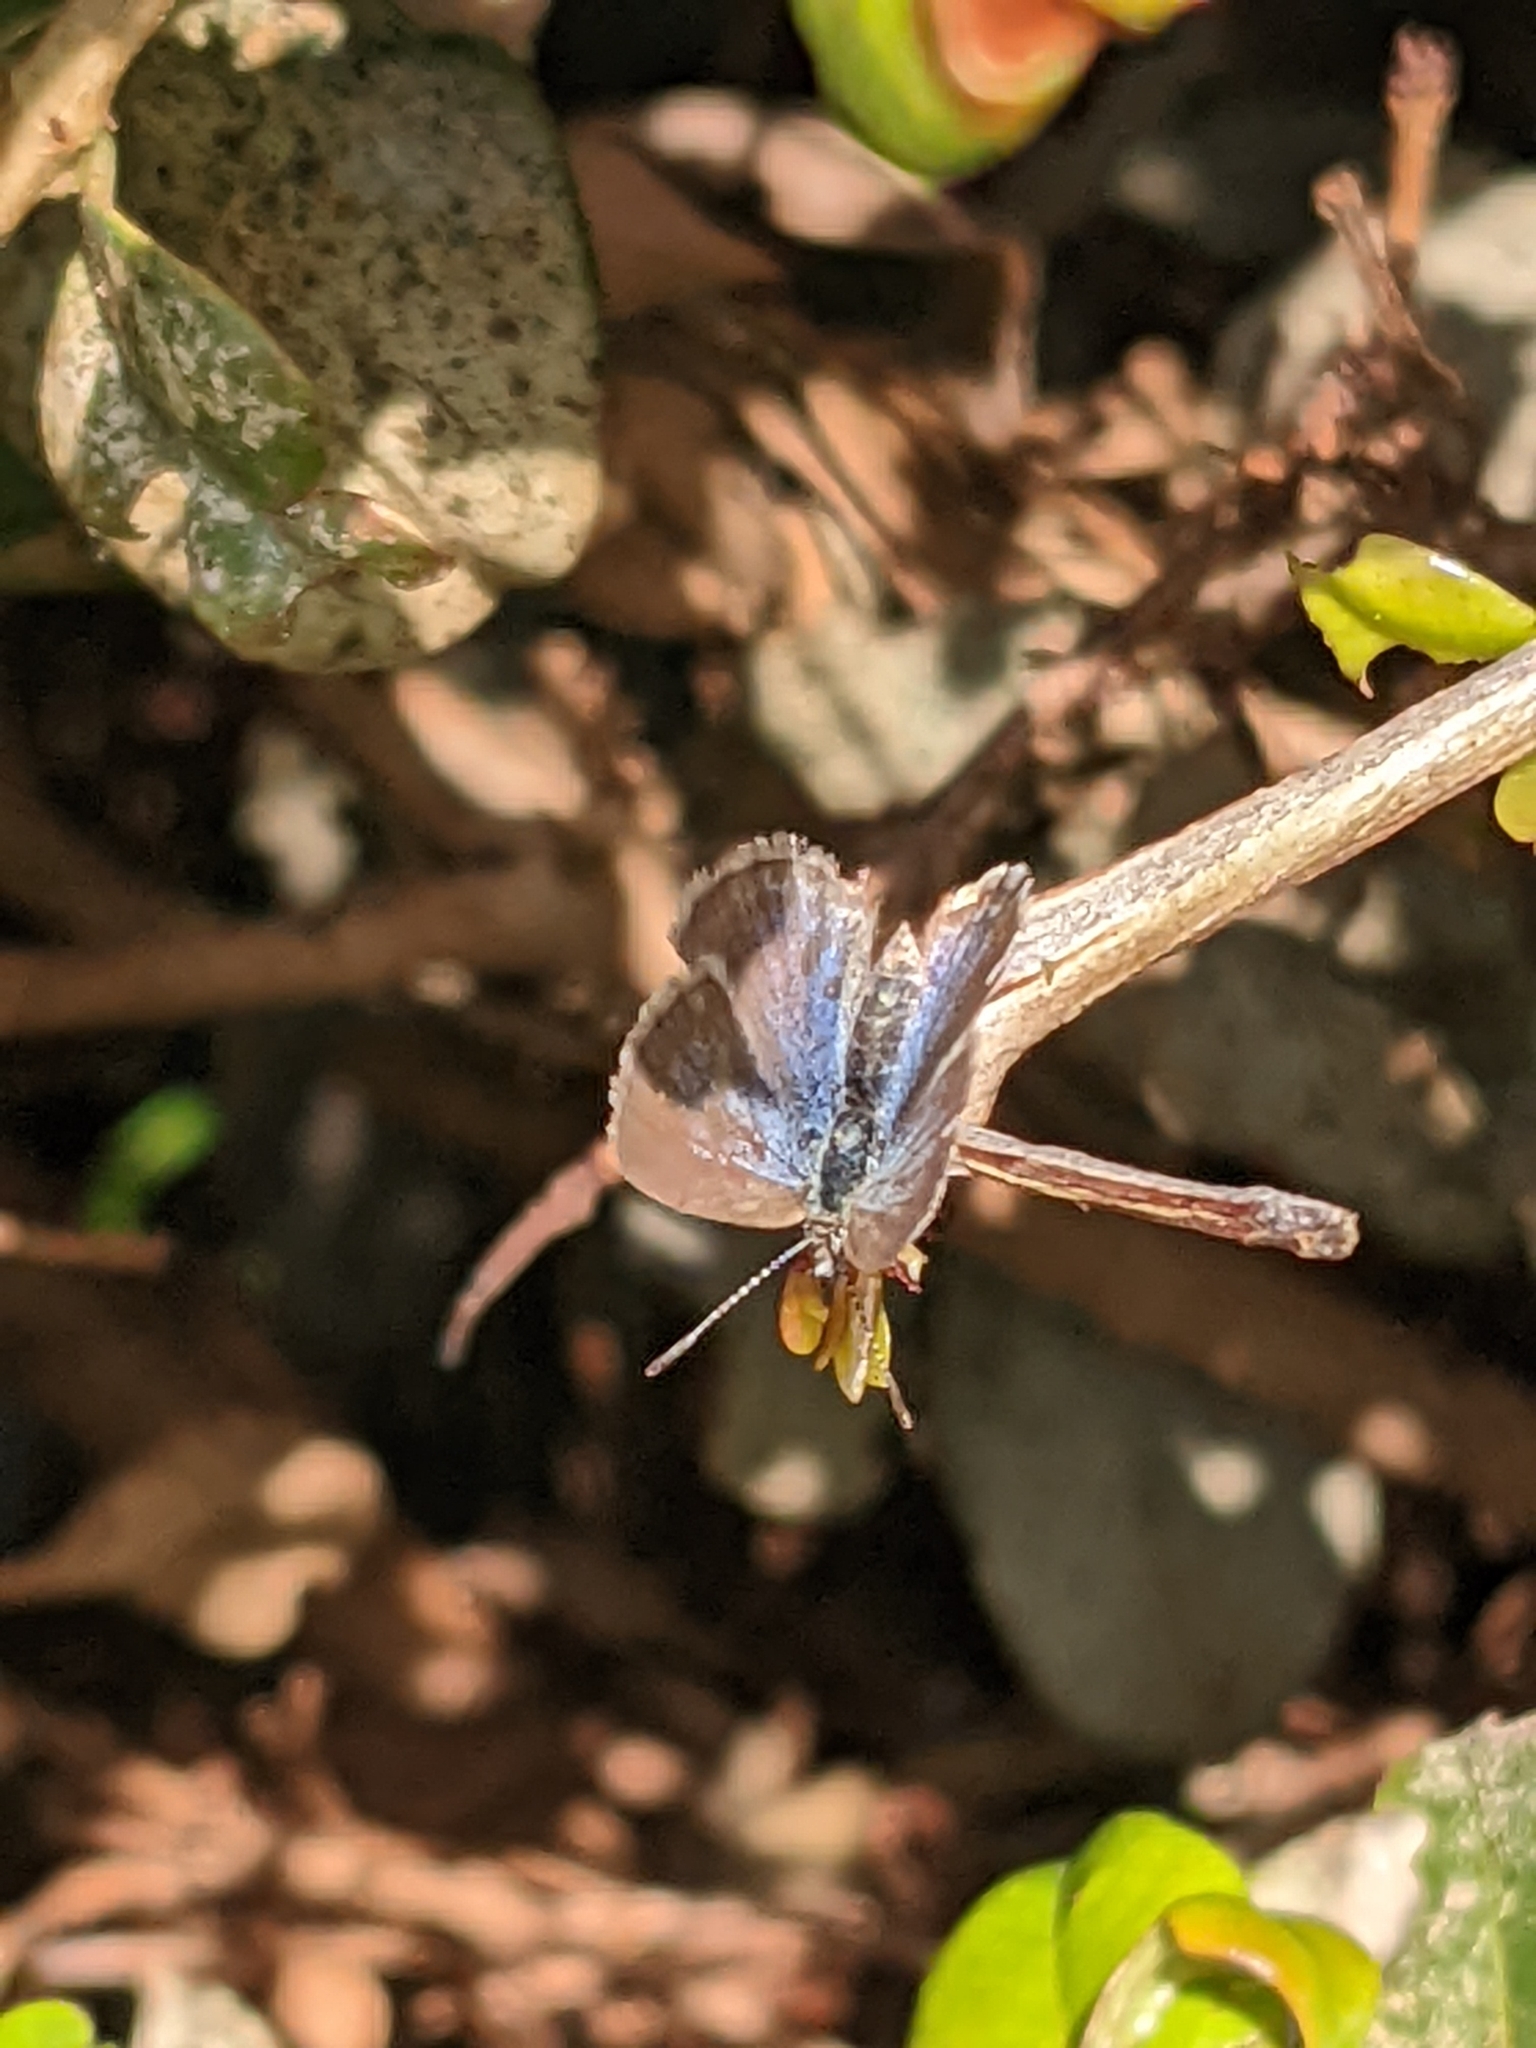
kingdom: Animalia
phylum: Arthropoda
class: Insecta
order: Lepidoptera
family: Lycaenidae
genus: Theclinesthes
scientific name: Theclinesthes serpentata
